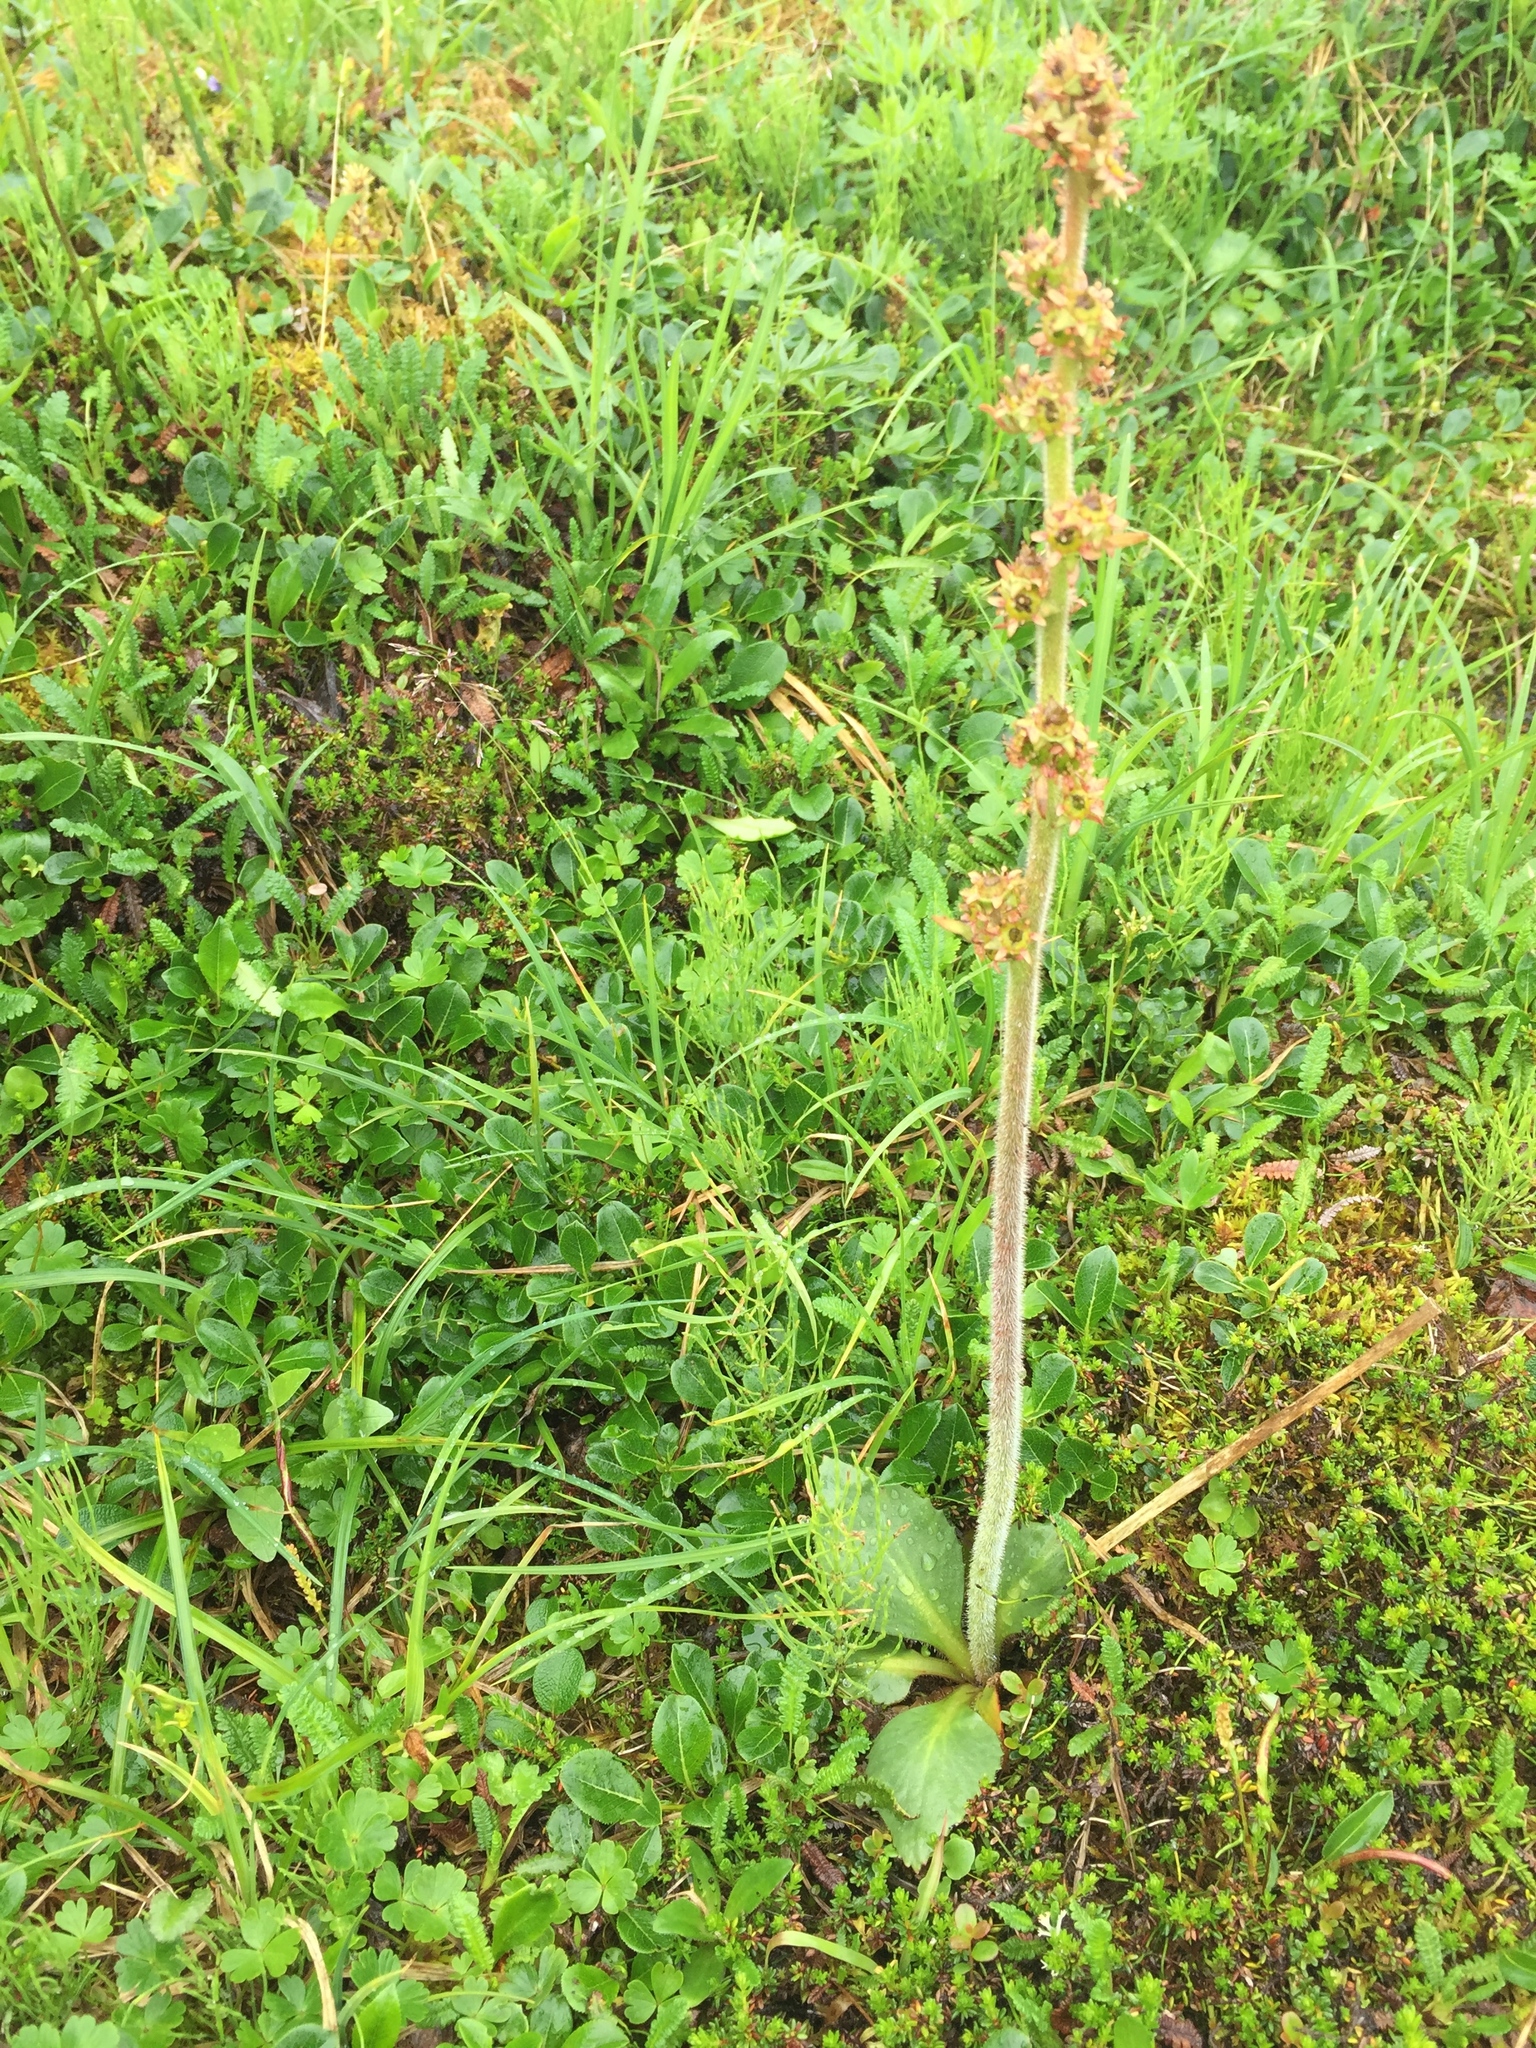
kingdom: Plantae
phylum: Tracheophyta
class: Magnoliopsida
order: Saxifragales
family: Saxifragaceae
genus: Micranthes
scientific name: Micranthes hieraciifolia
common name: Hawkweed-leaved saxifrage
